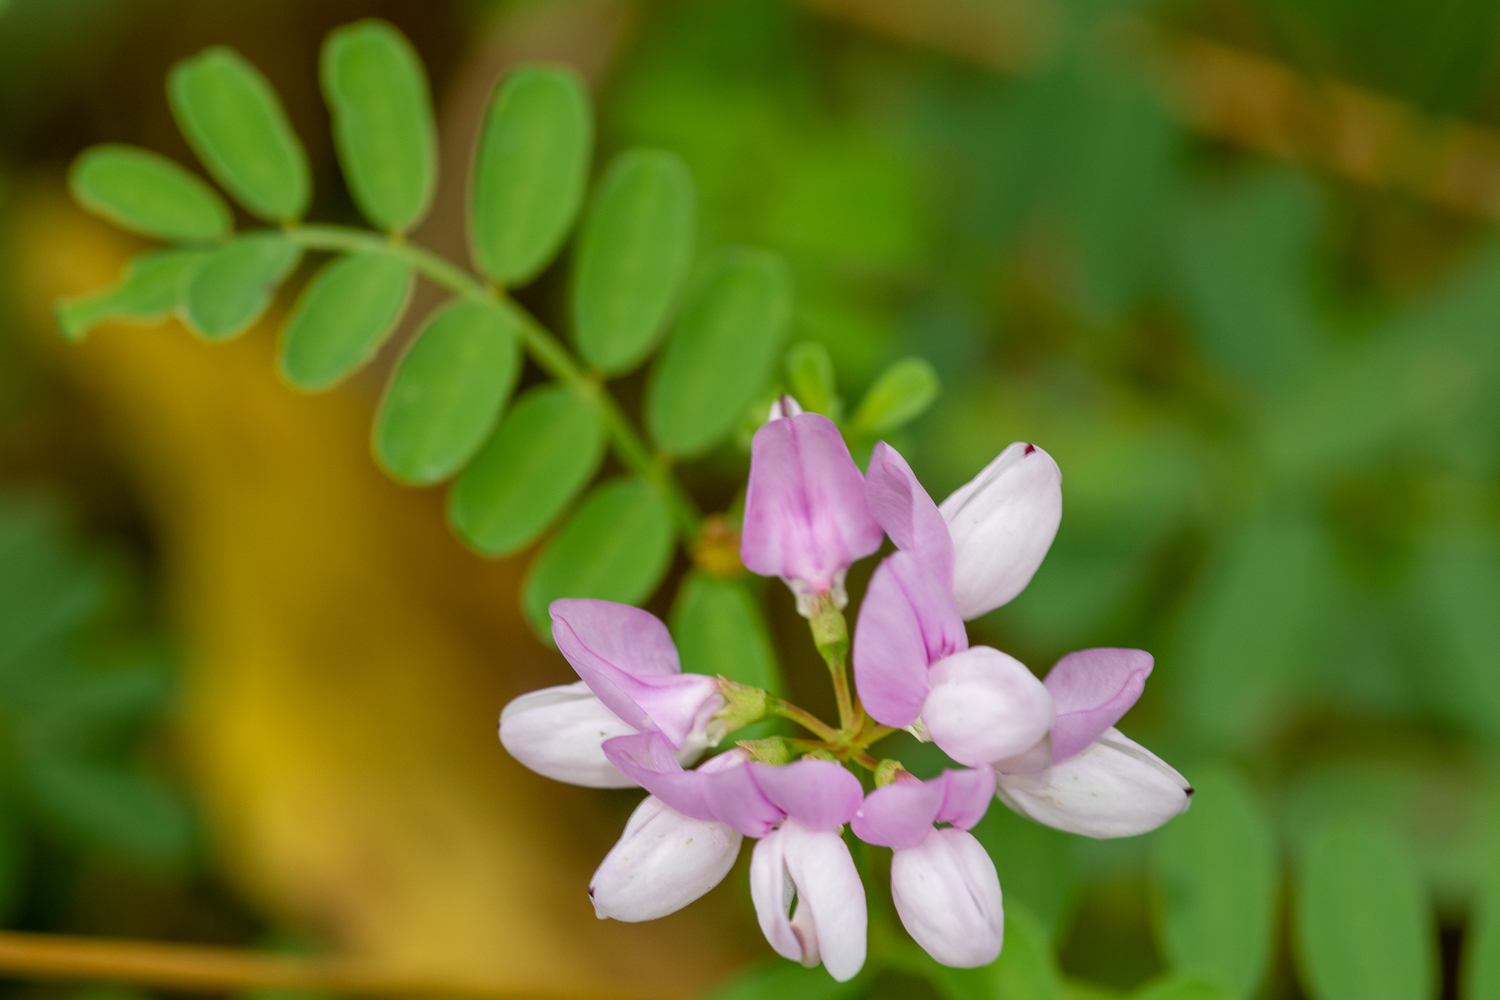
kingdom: Plantae
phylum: Tracheophyta
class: Magnoliopsida
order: Fabales
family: Fabaceae
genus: Coronilla
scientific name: Coronilla varia
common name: Crownvetch
